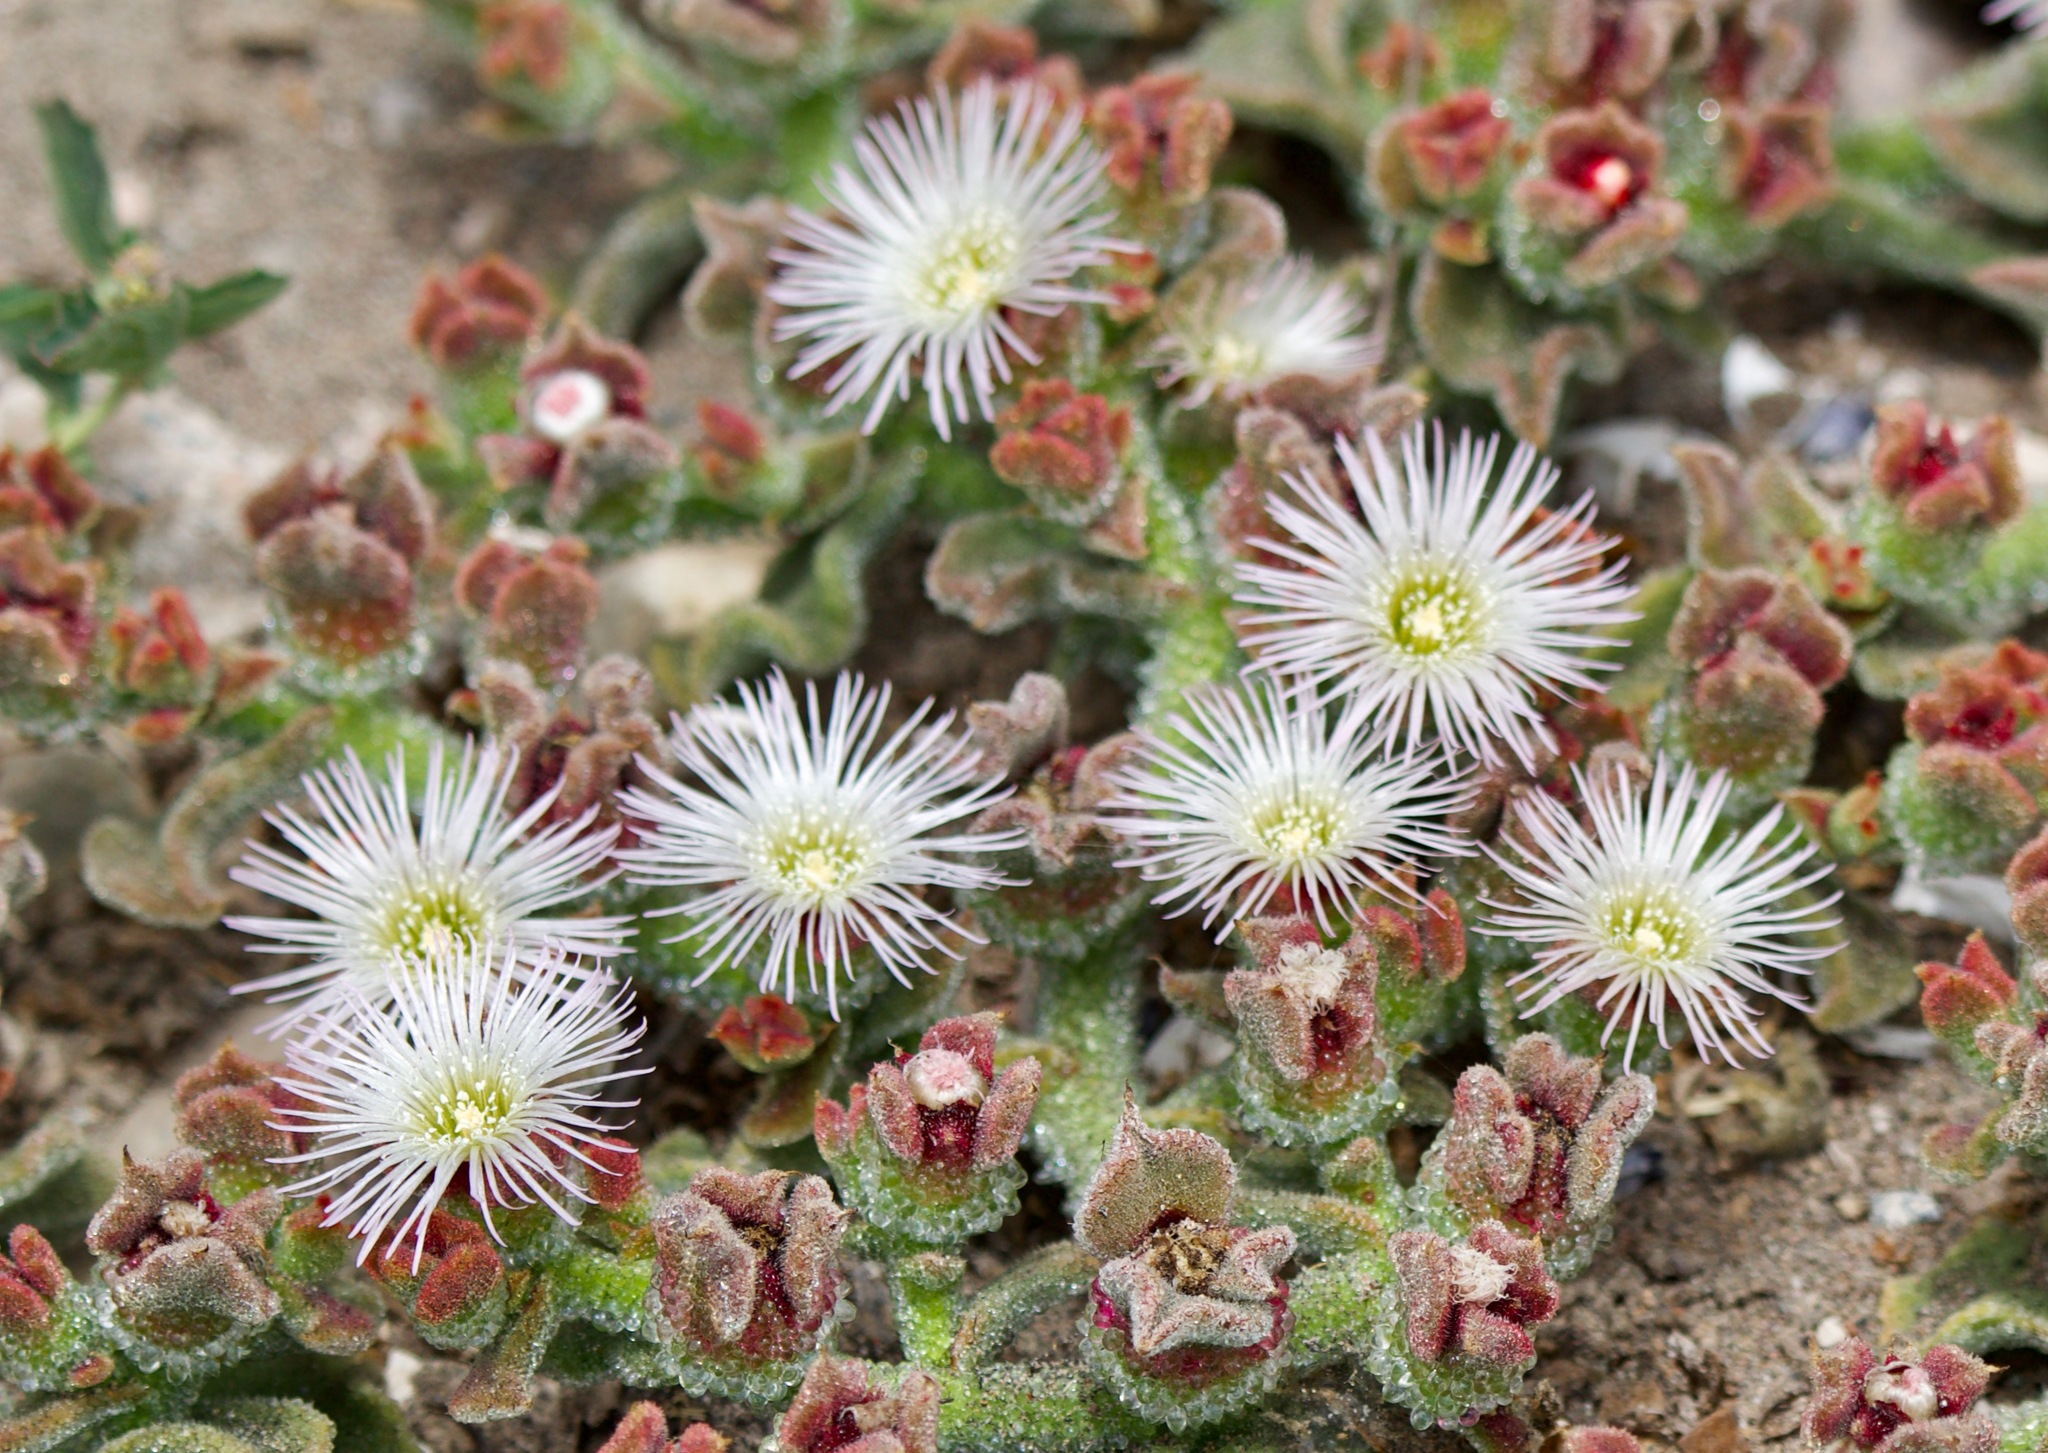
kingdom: Plantae
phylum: Tracheophyta
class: Magnoliopsida
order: Caryophyllales
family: Aizoaceae
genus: Mesembryanthemum
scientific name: Mesembryanthemum crystallinum
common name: Common iceplant
